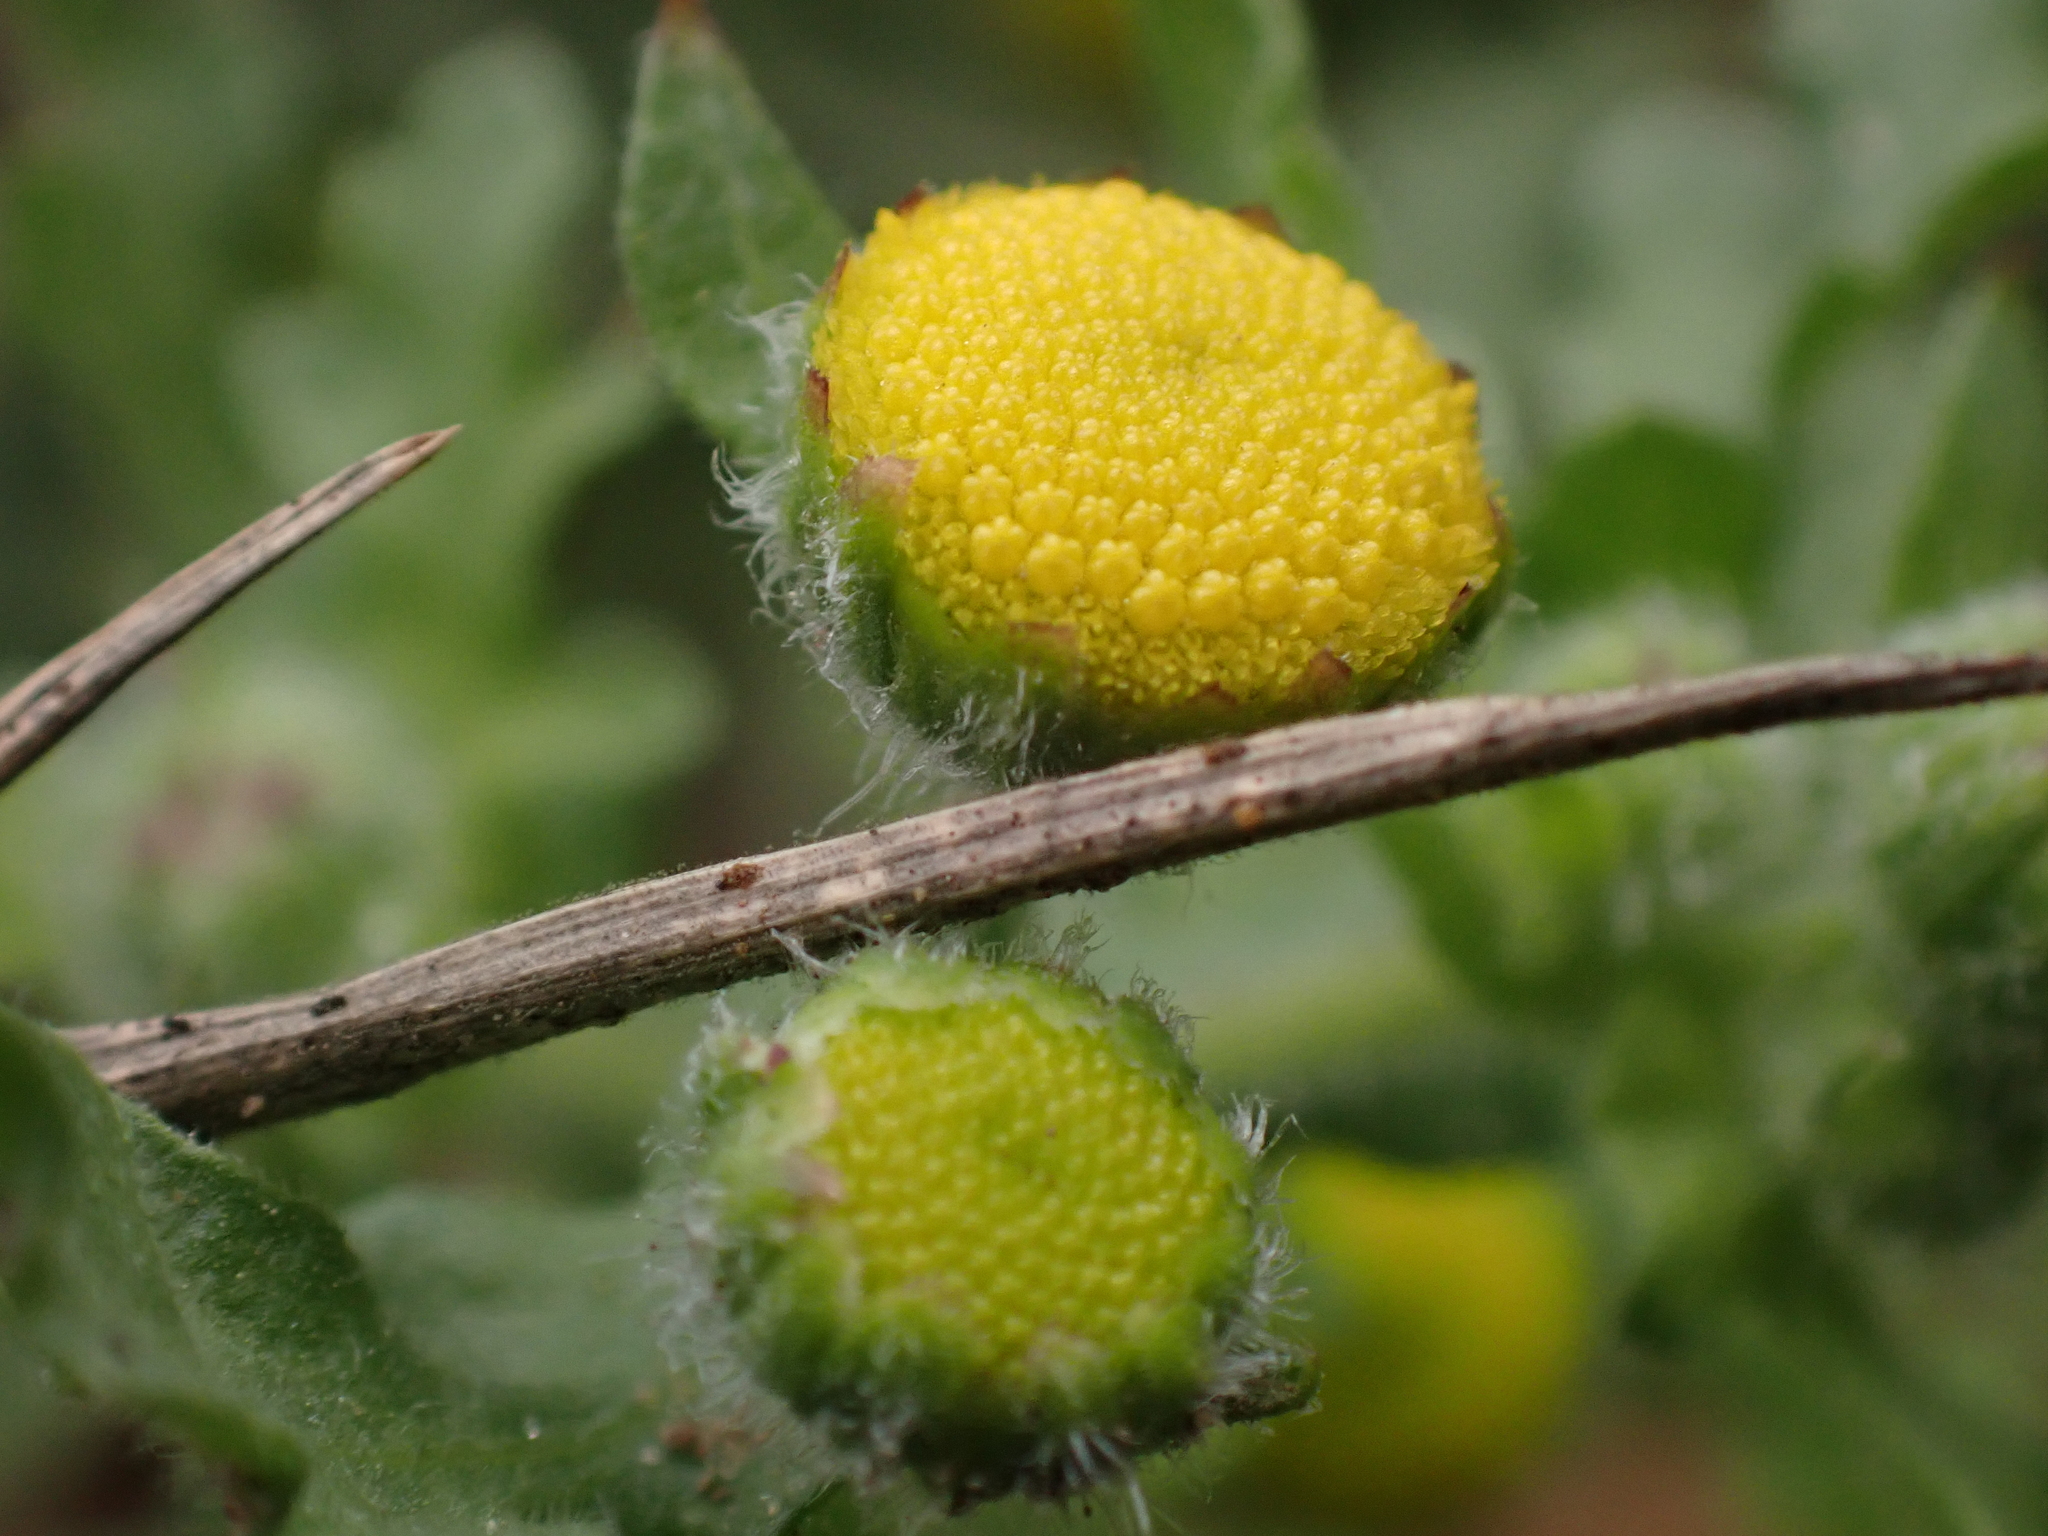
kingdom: Plantae
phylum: Tracheophyta
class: Magnoliopsida
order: Asterales
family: Asteraceae
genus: Grangea
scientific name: Grangea maderaspatana
